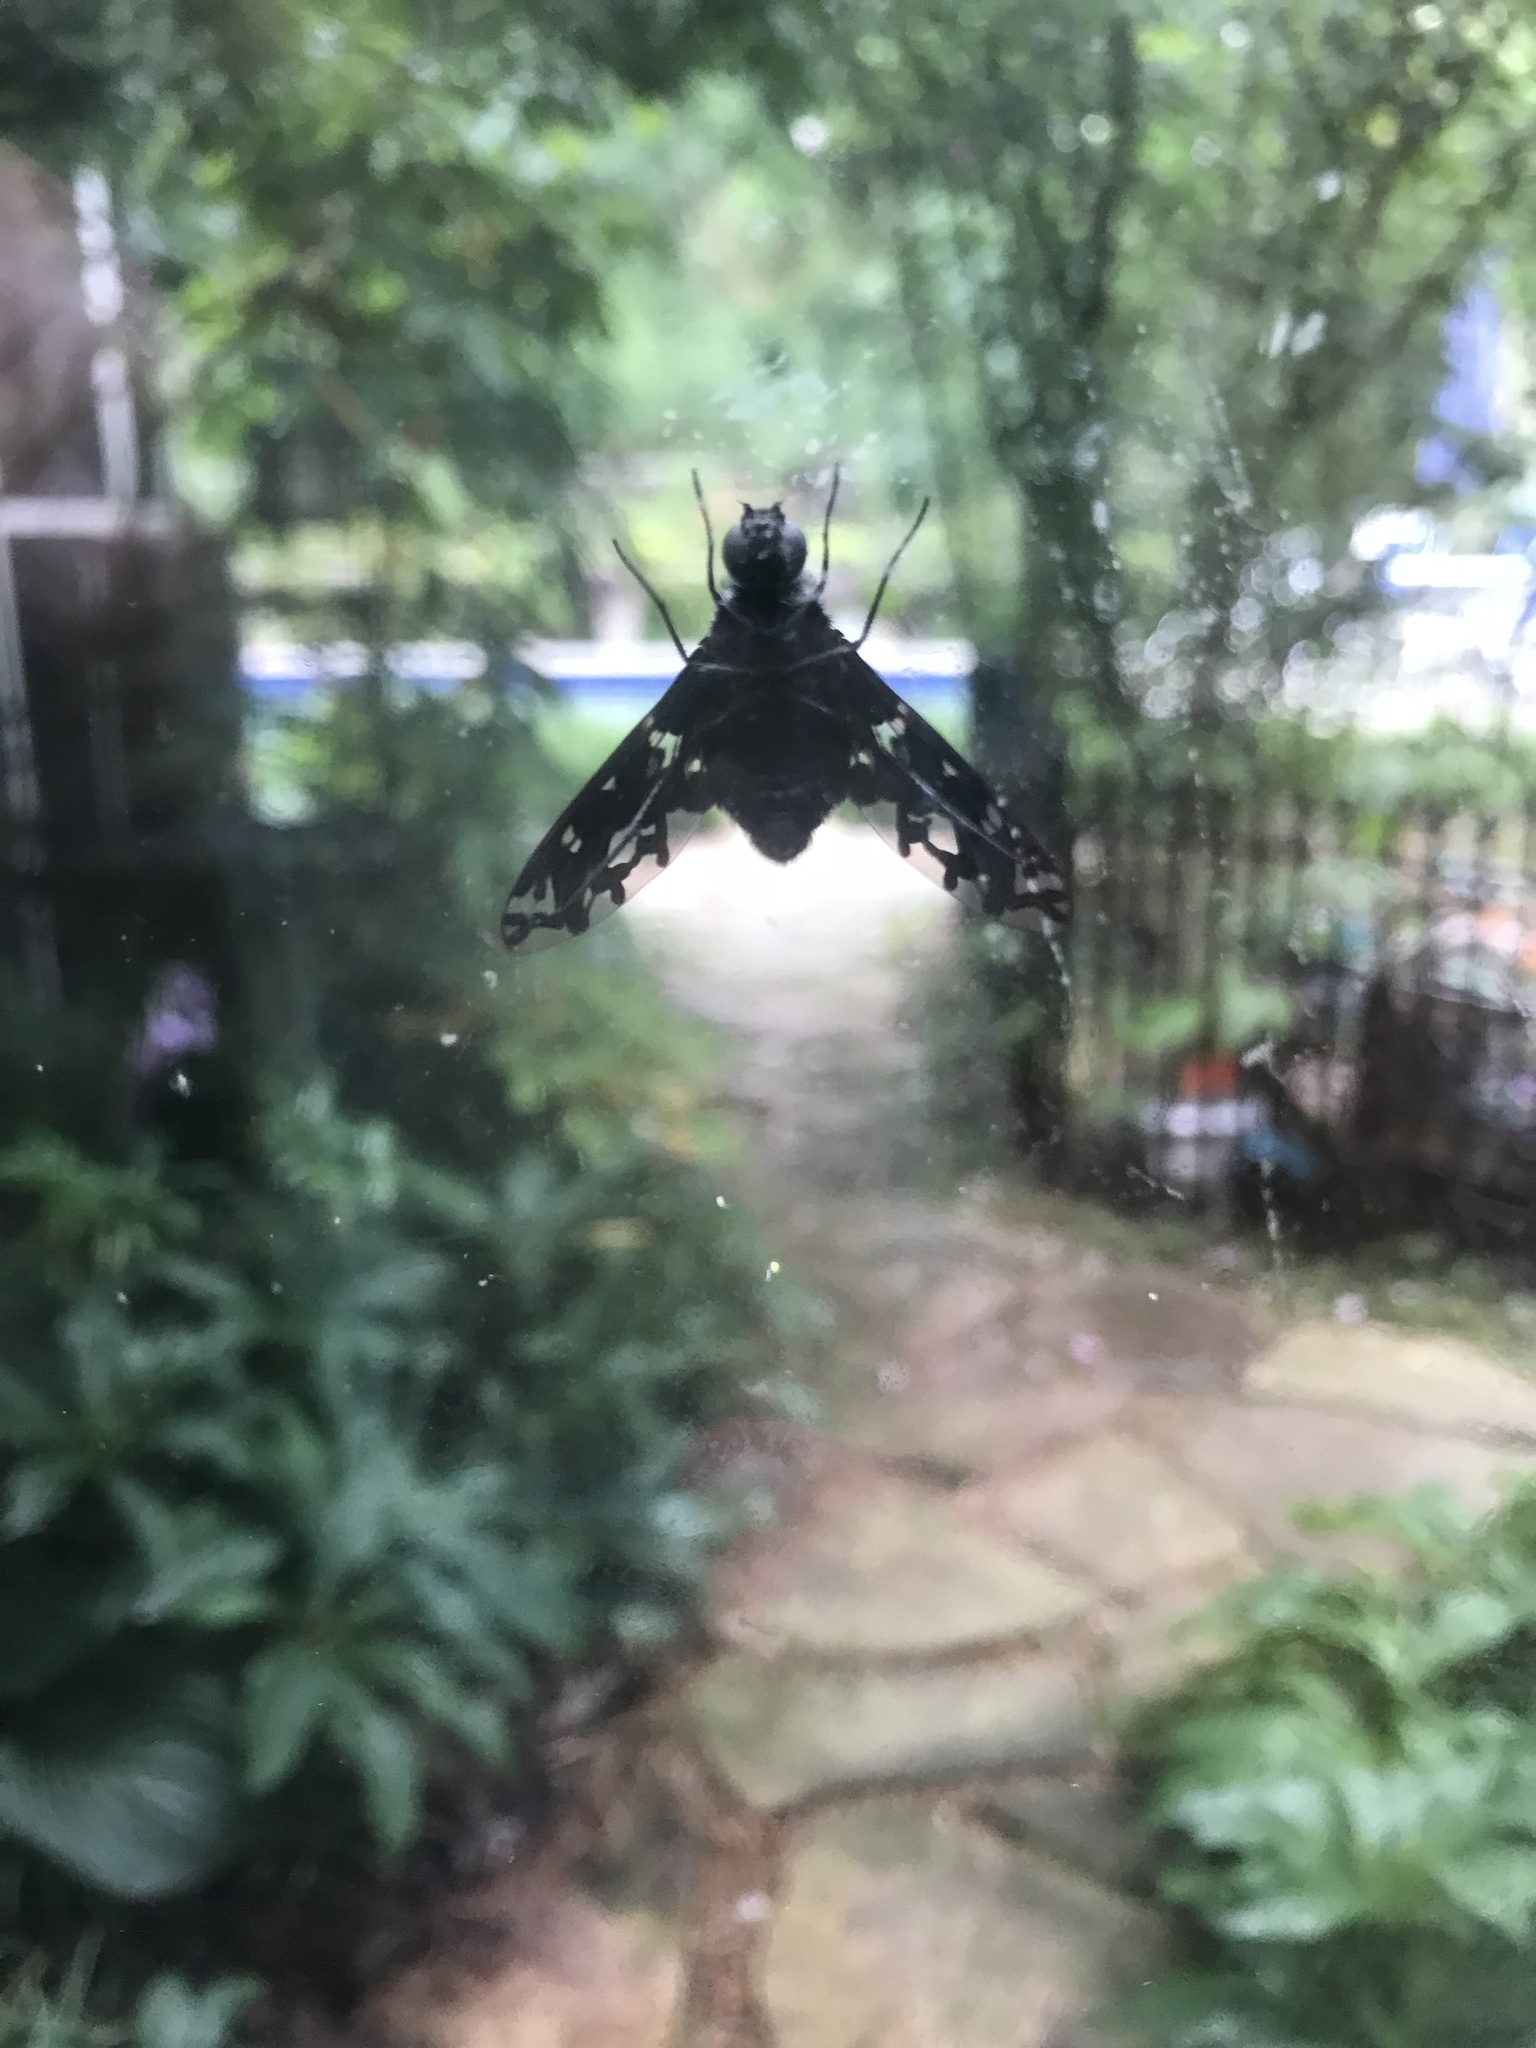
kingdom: Animalia
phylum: Arthropoda
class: Insecta
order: Diptera
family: Bombyliidae
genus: Xenox
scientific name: Xenox tigrinus
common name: Tiger bee fly
